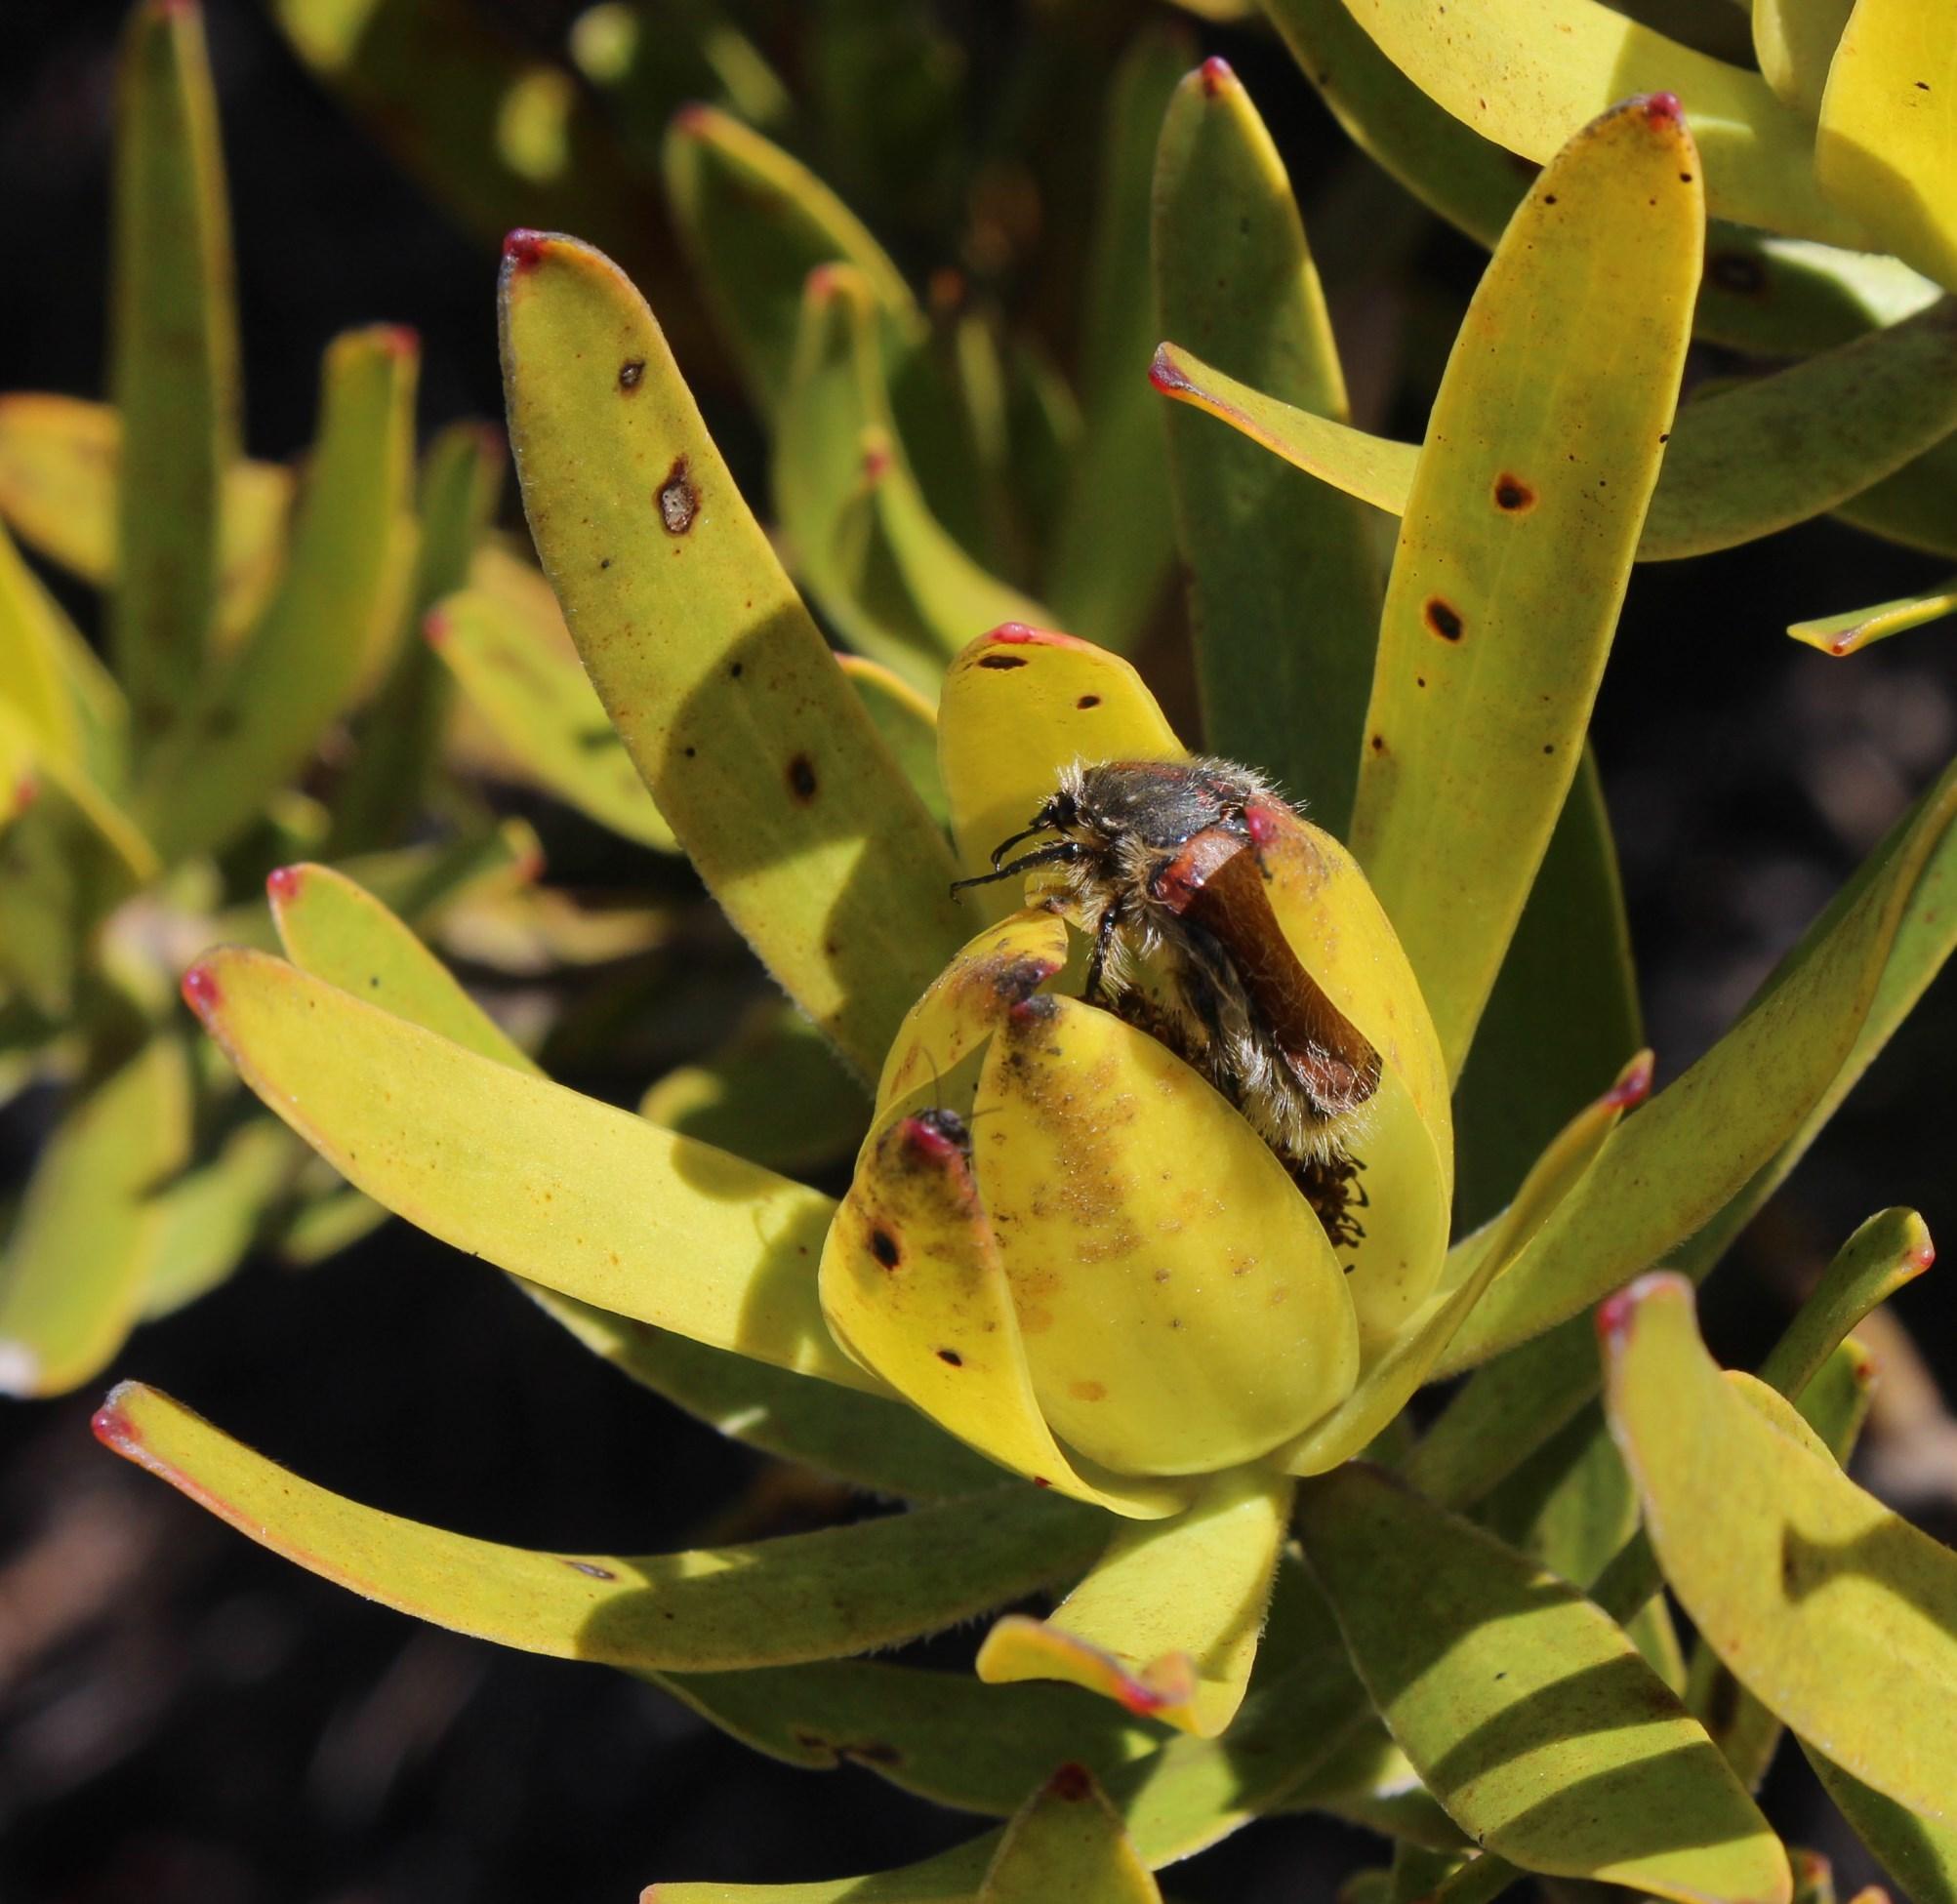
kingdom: Plantae
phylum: Tracheophyta
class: Magnoliopsida
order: Proteales
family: Proteaceae
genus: Leucadendron
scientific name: Leucadendron laureolum
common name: Golden sunshinebush
